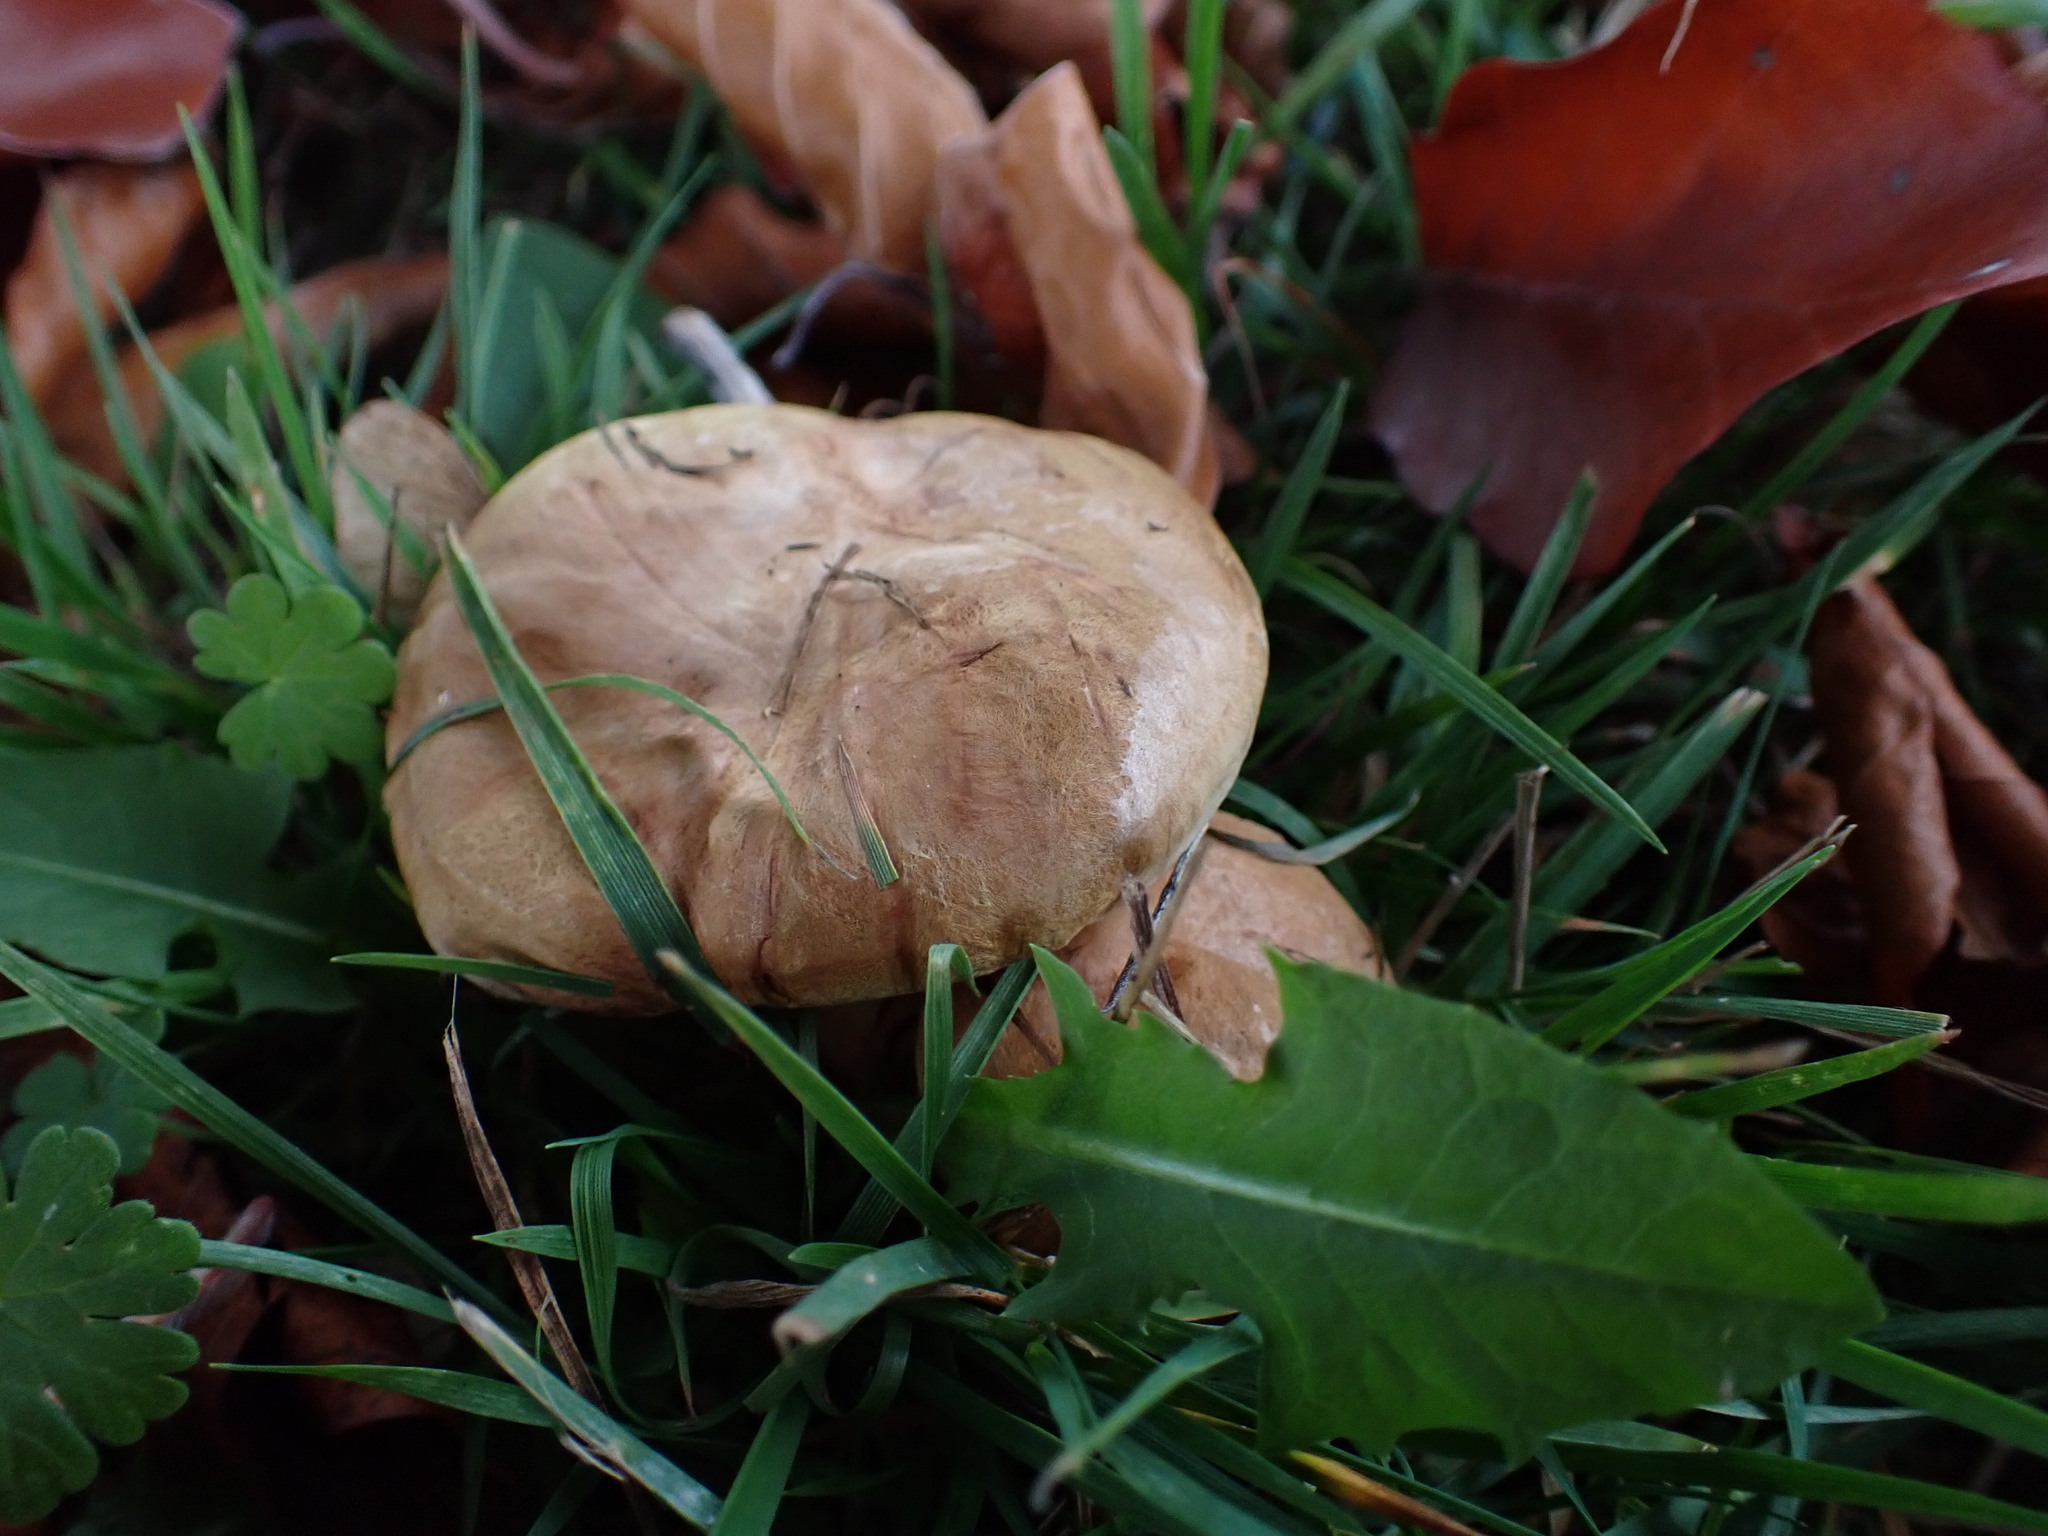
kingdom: Fungi
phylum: Basidiomycota
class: Agaricomycetes
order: Boletales
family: Paxillaceae
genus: Paxillus
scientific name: Paxillus involutus
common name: Brown roll rim
